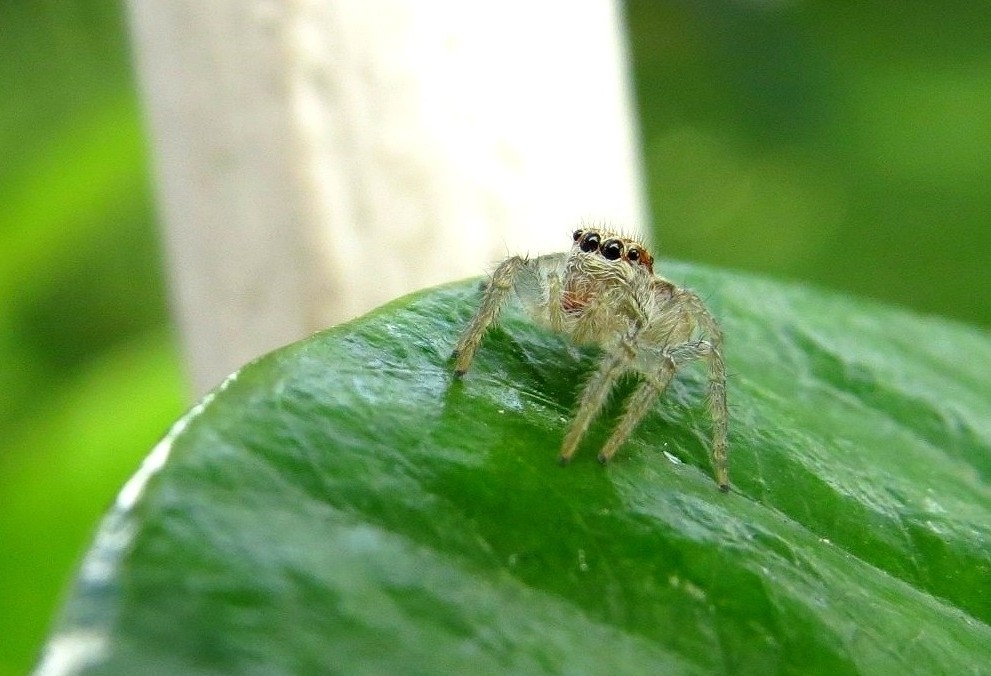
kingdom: Animalia
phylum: Arthropoda
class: Arachnida
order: Araneae
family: Salticidae
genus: Megafreya
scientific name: Megafreya sutrix
